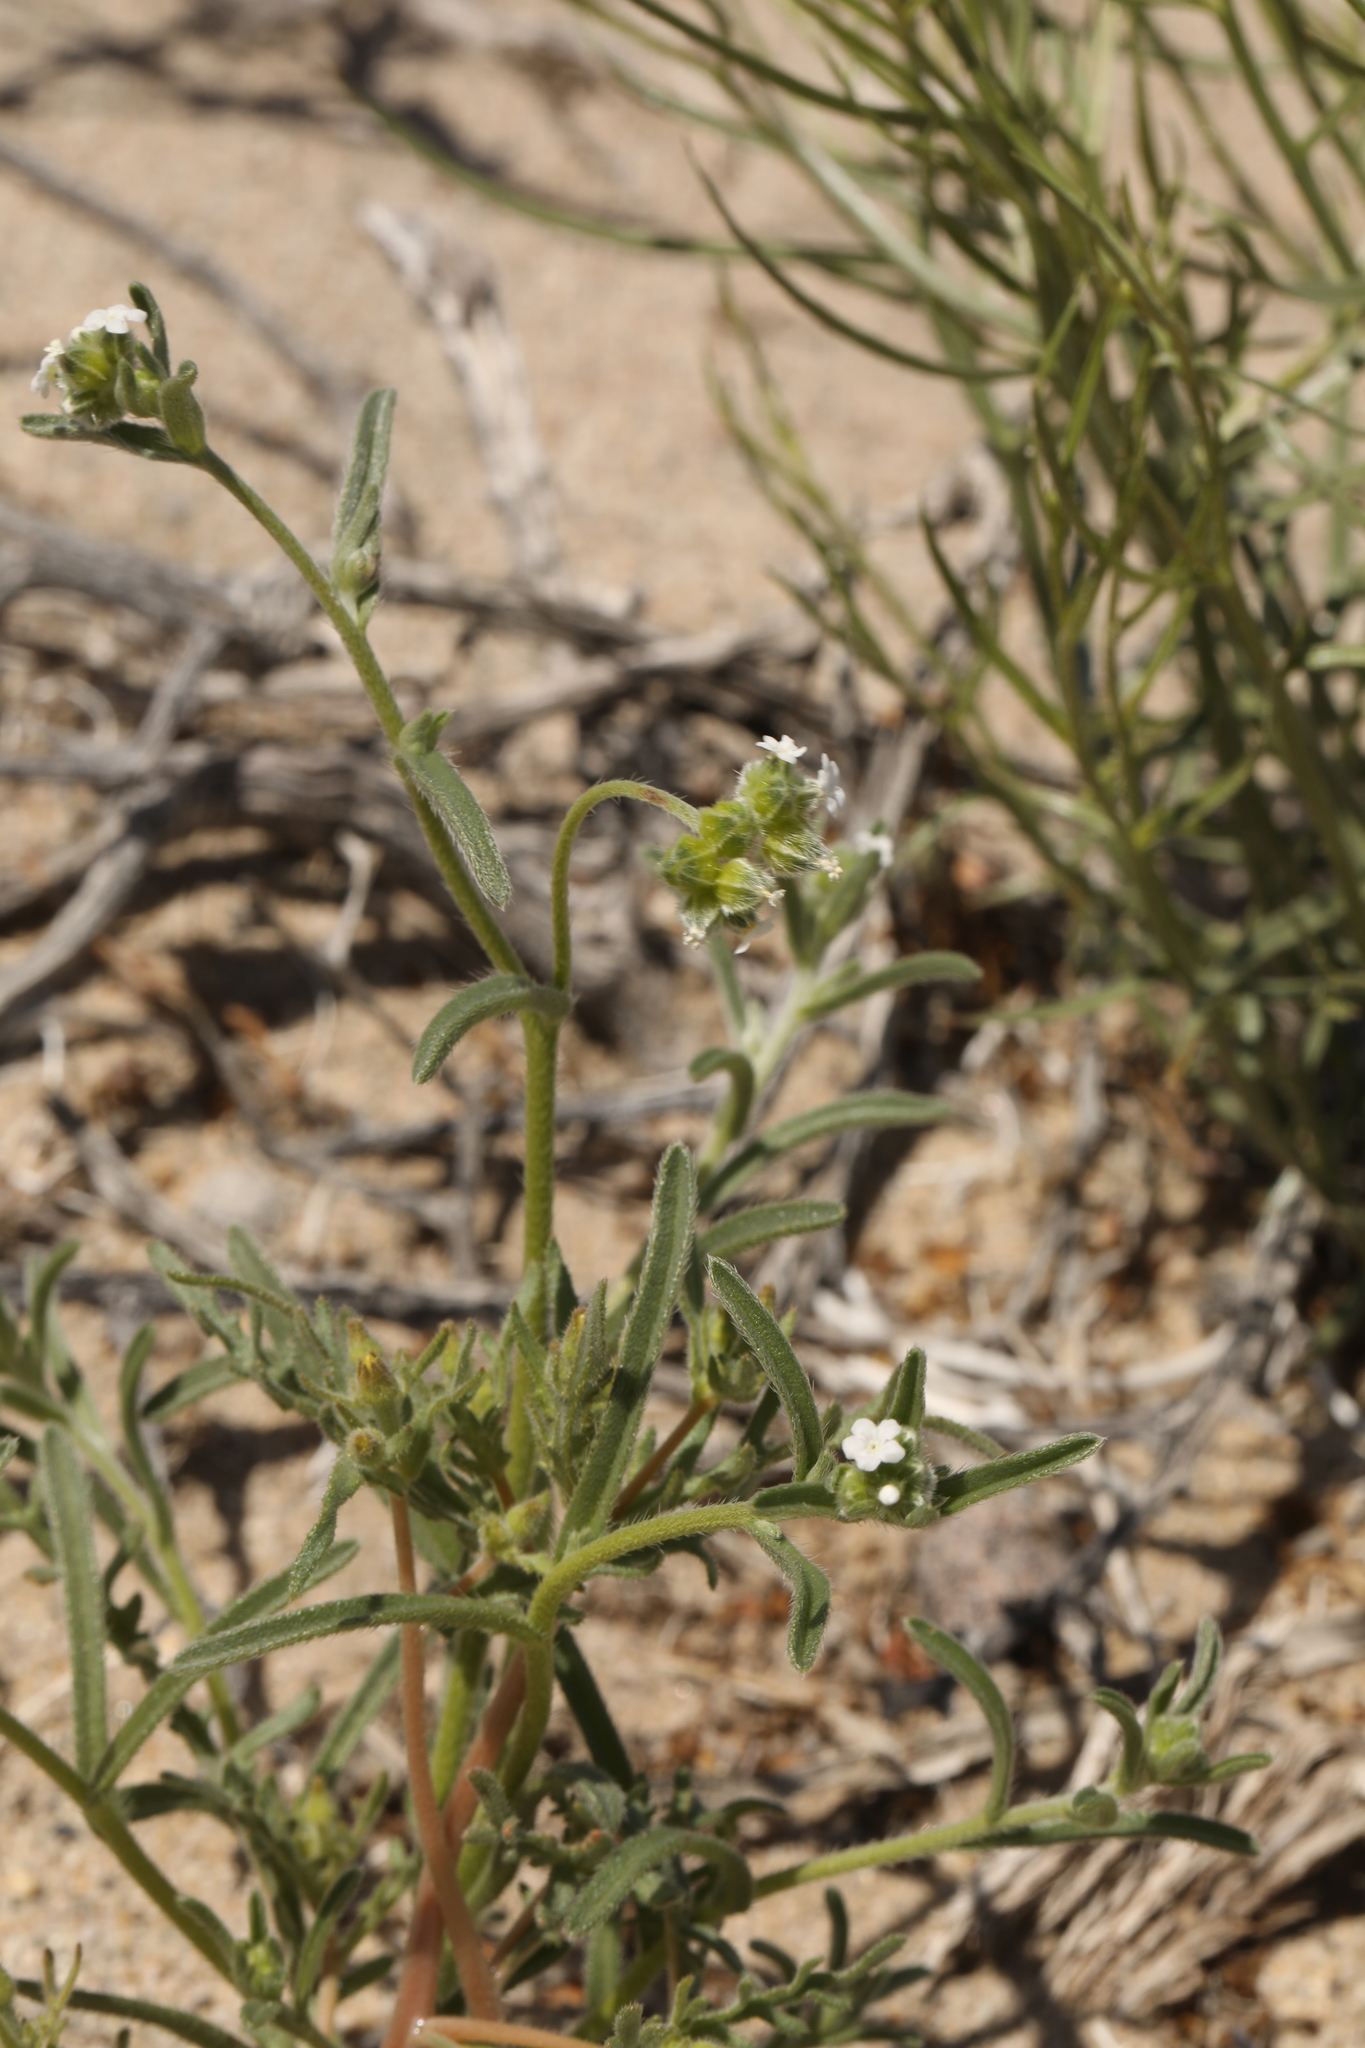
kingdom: Plantae
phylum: Tracheophyta
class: Magnoliopsida
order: Boraginales
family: Boraginaceae
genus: Cryptantha
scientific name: Cryptantha pterocarya
